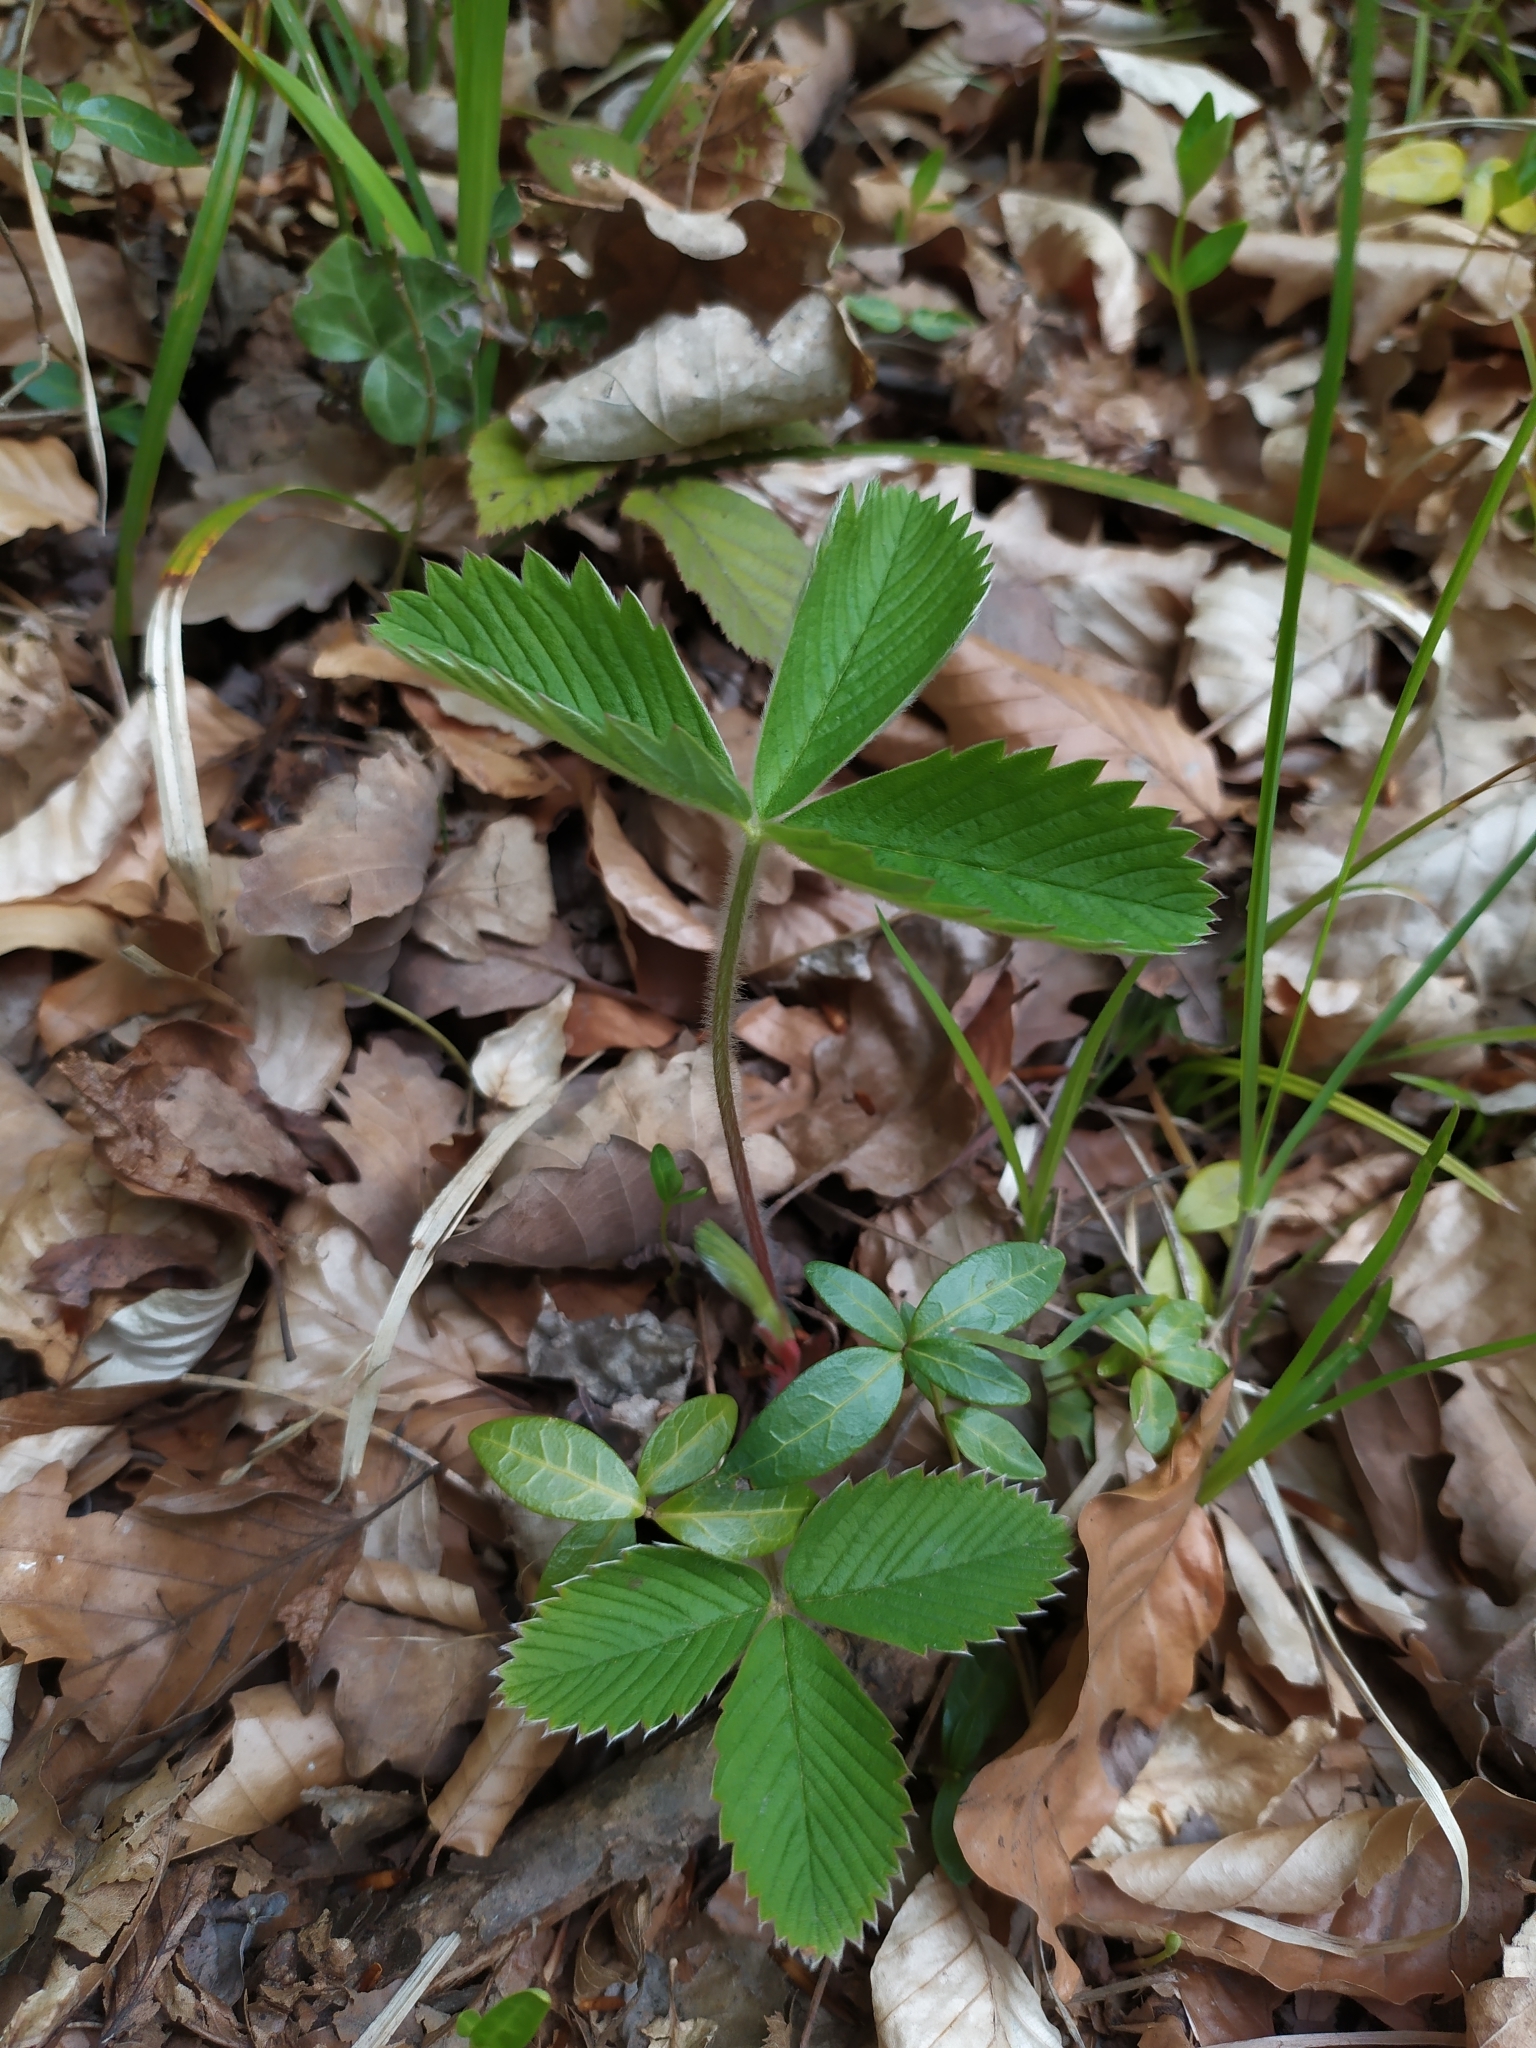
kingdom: Plantae
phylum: Tracheophyta
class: Magnoliopsida
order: Rosales
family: Rosaceae
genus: Fragaria
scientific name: Fragaria moschata
